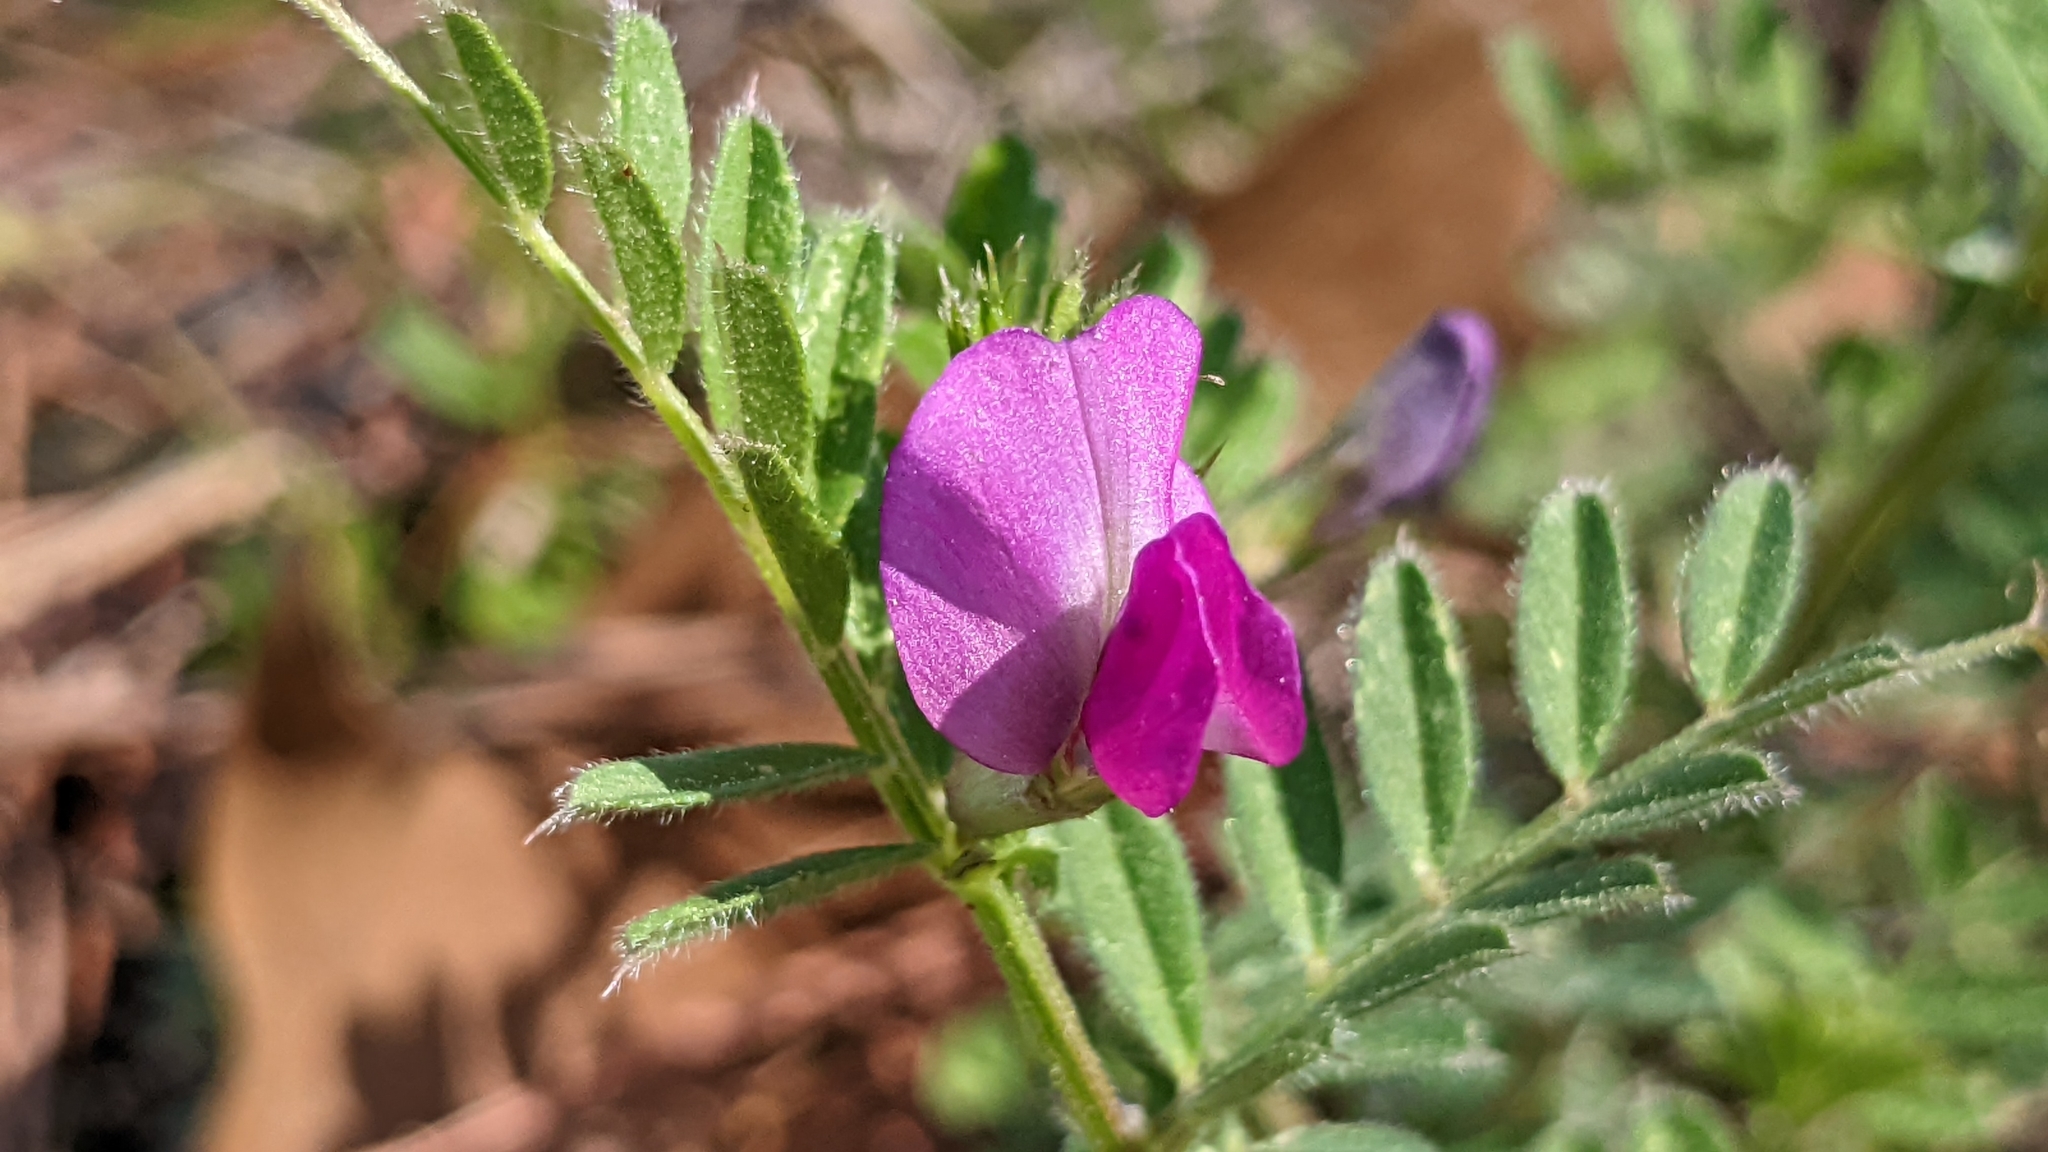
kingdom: Plantae
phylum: Tracheophyta
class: Magnoliopsida
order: Fabales
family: Fabaceae
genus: Vicia
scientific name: Vicia sativa
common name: Garden vetch
